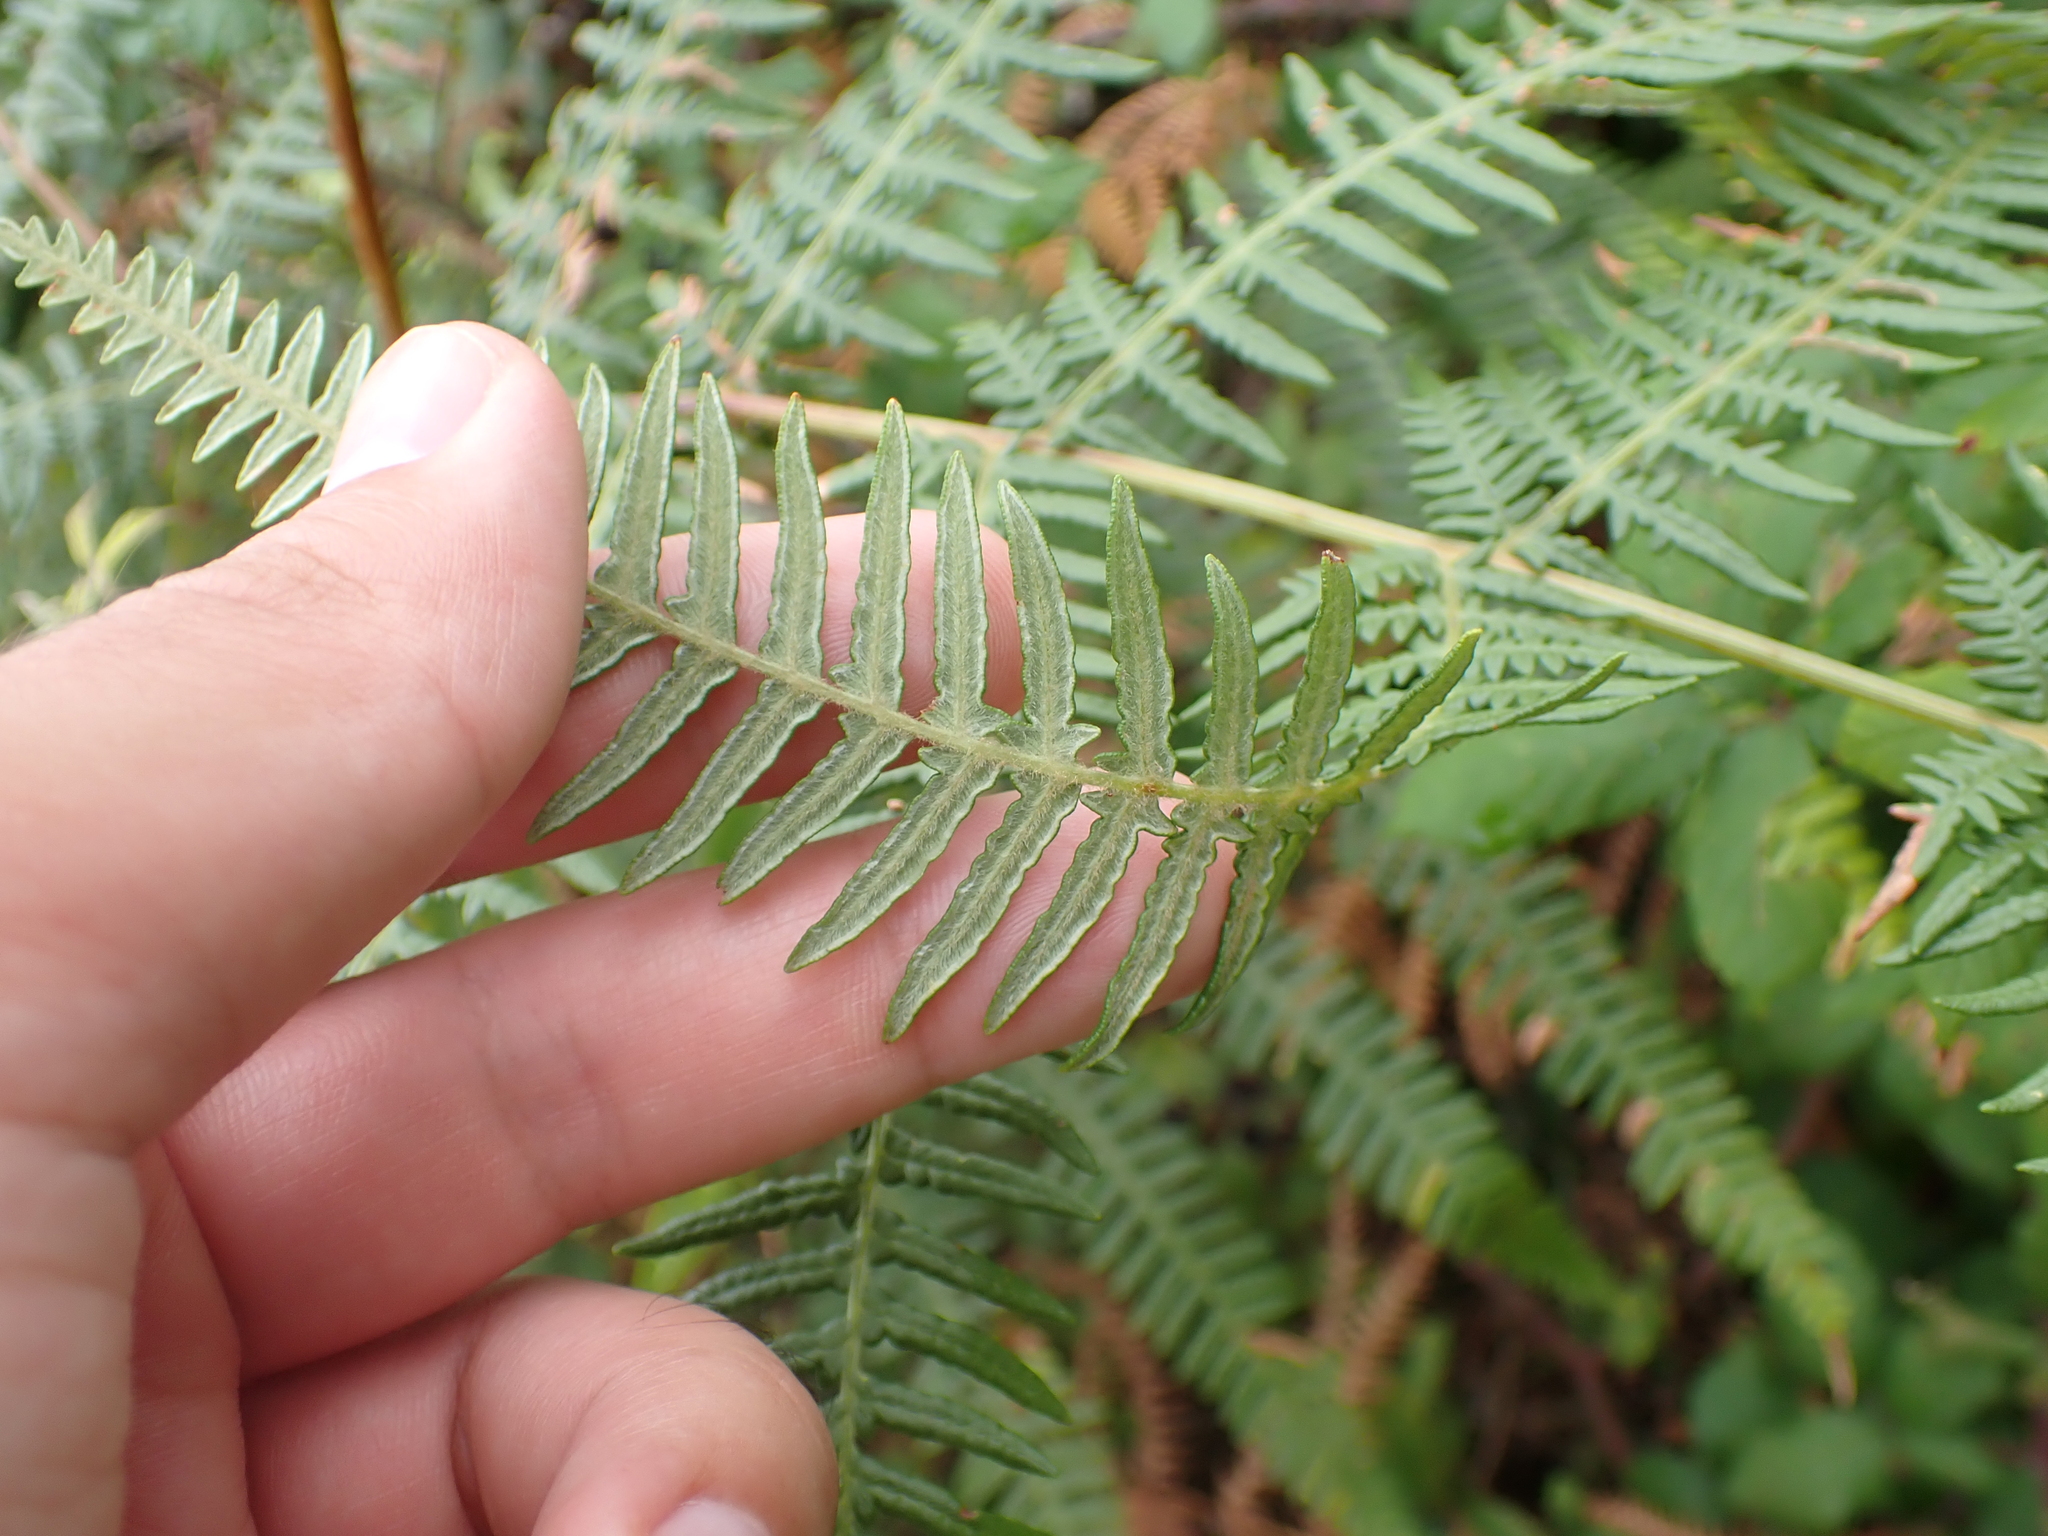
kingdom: Plantae
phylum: Tracheophyta
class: Polypodiopsida
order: Polypodiales
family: Dennstaedtiaceae
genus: Pteridium
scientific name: Pteridium aquilinum
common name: Bracken
